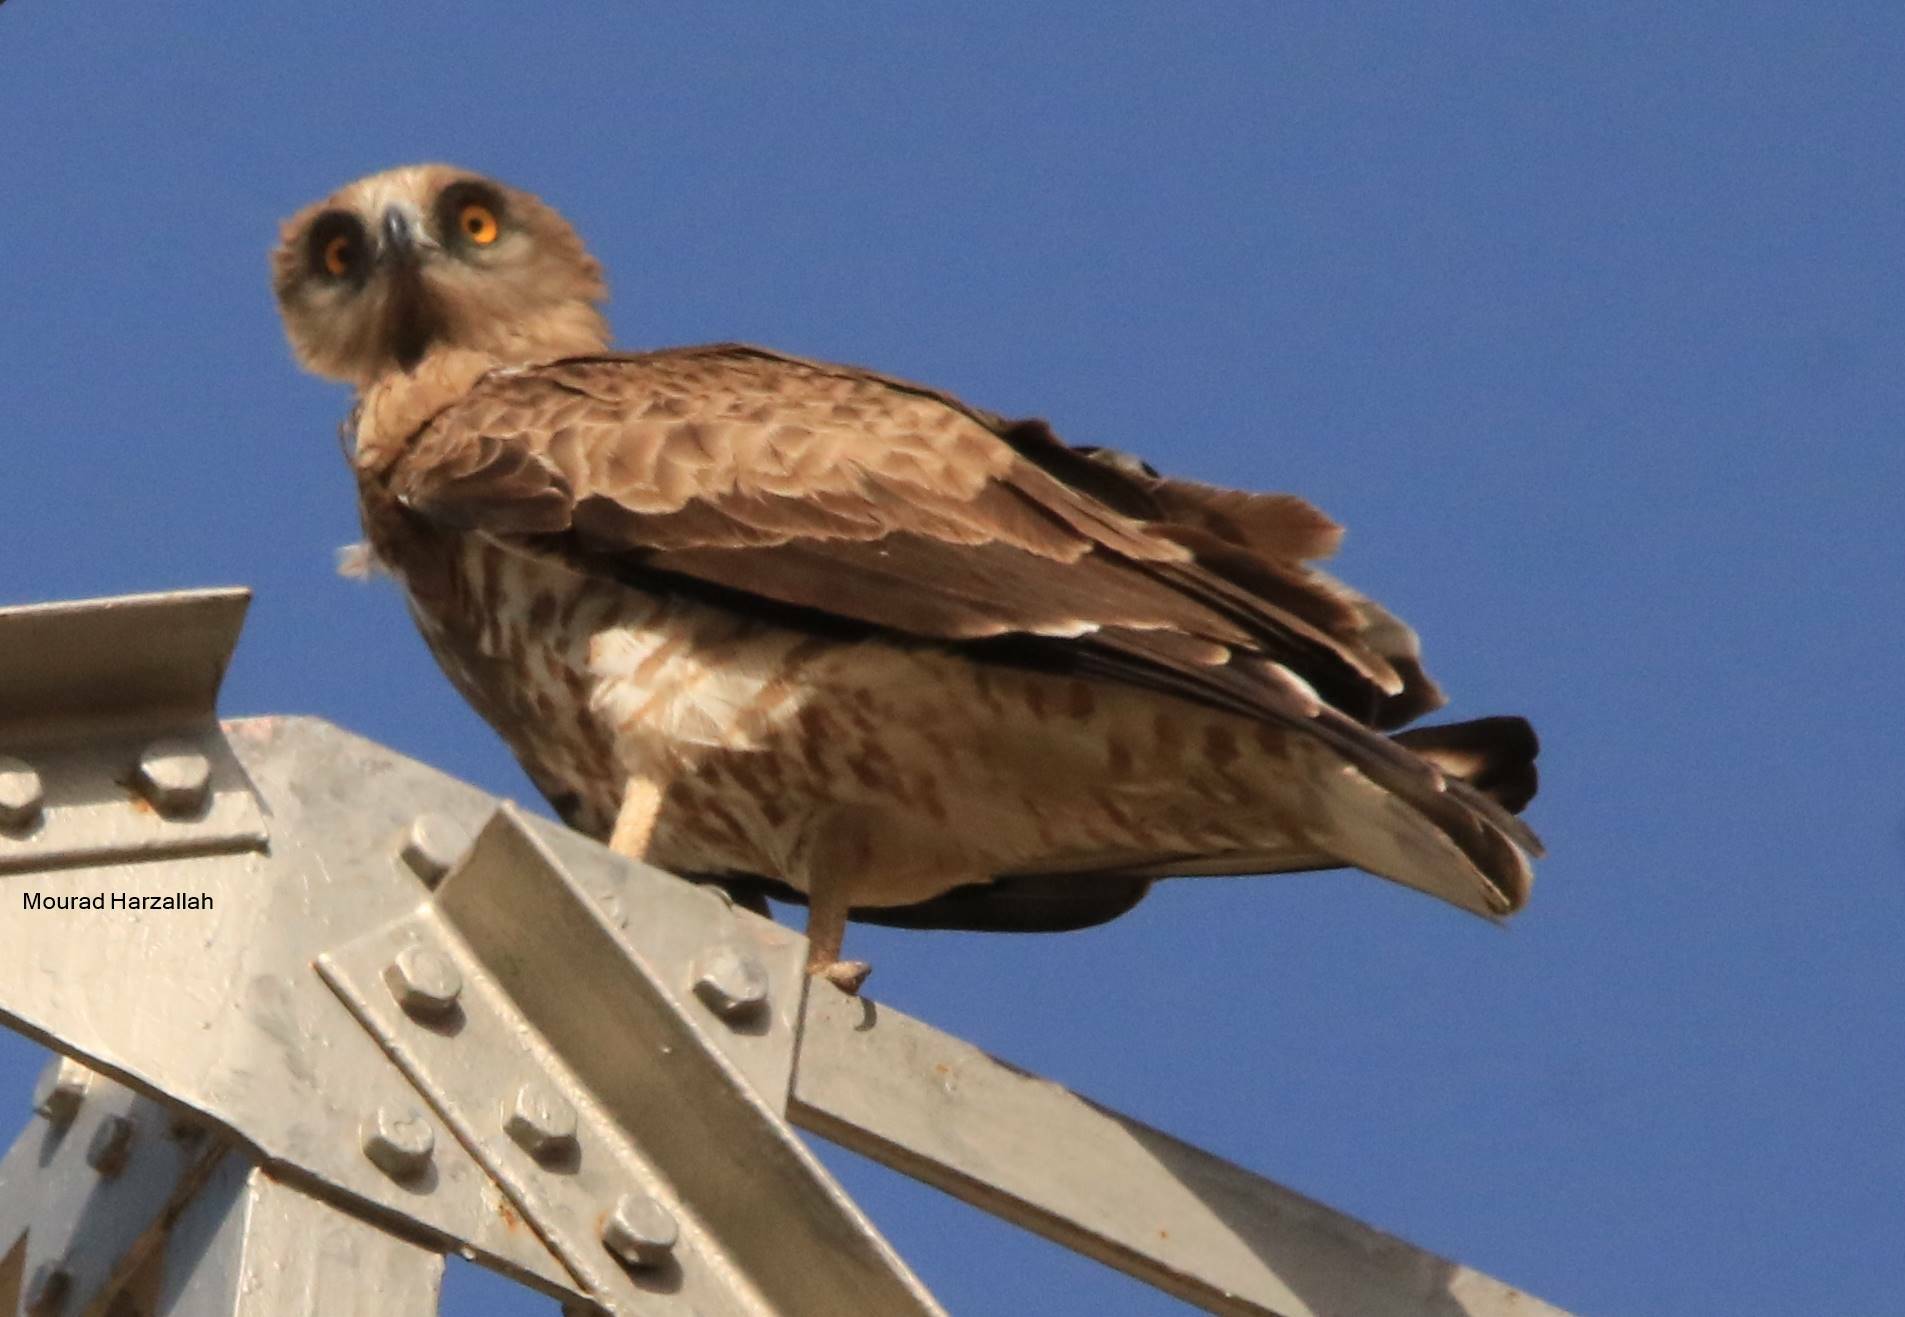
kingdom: Animalia
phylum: Chordata
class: Aves
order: Accipitriformes
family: Accipitridae
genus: Circaetus
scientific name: Circaetus gallicus
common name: Short-toed snake eagle
